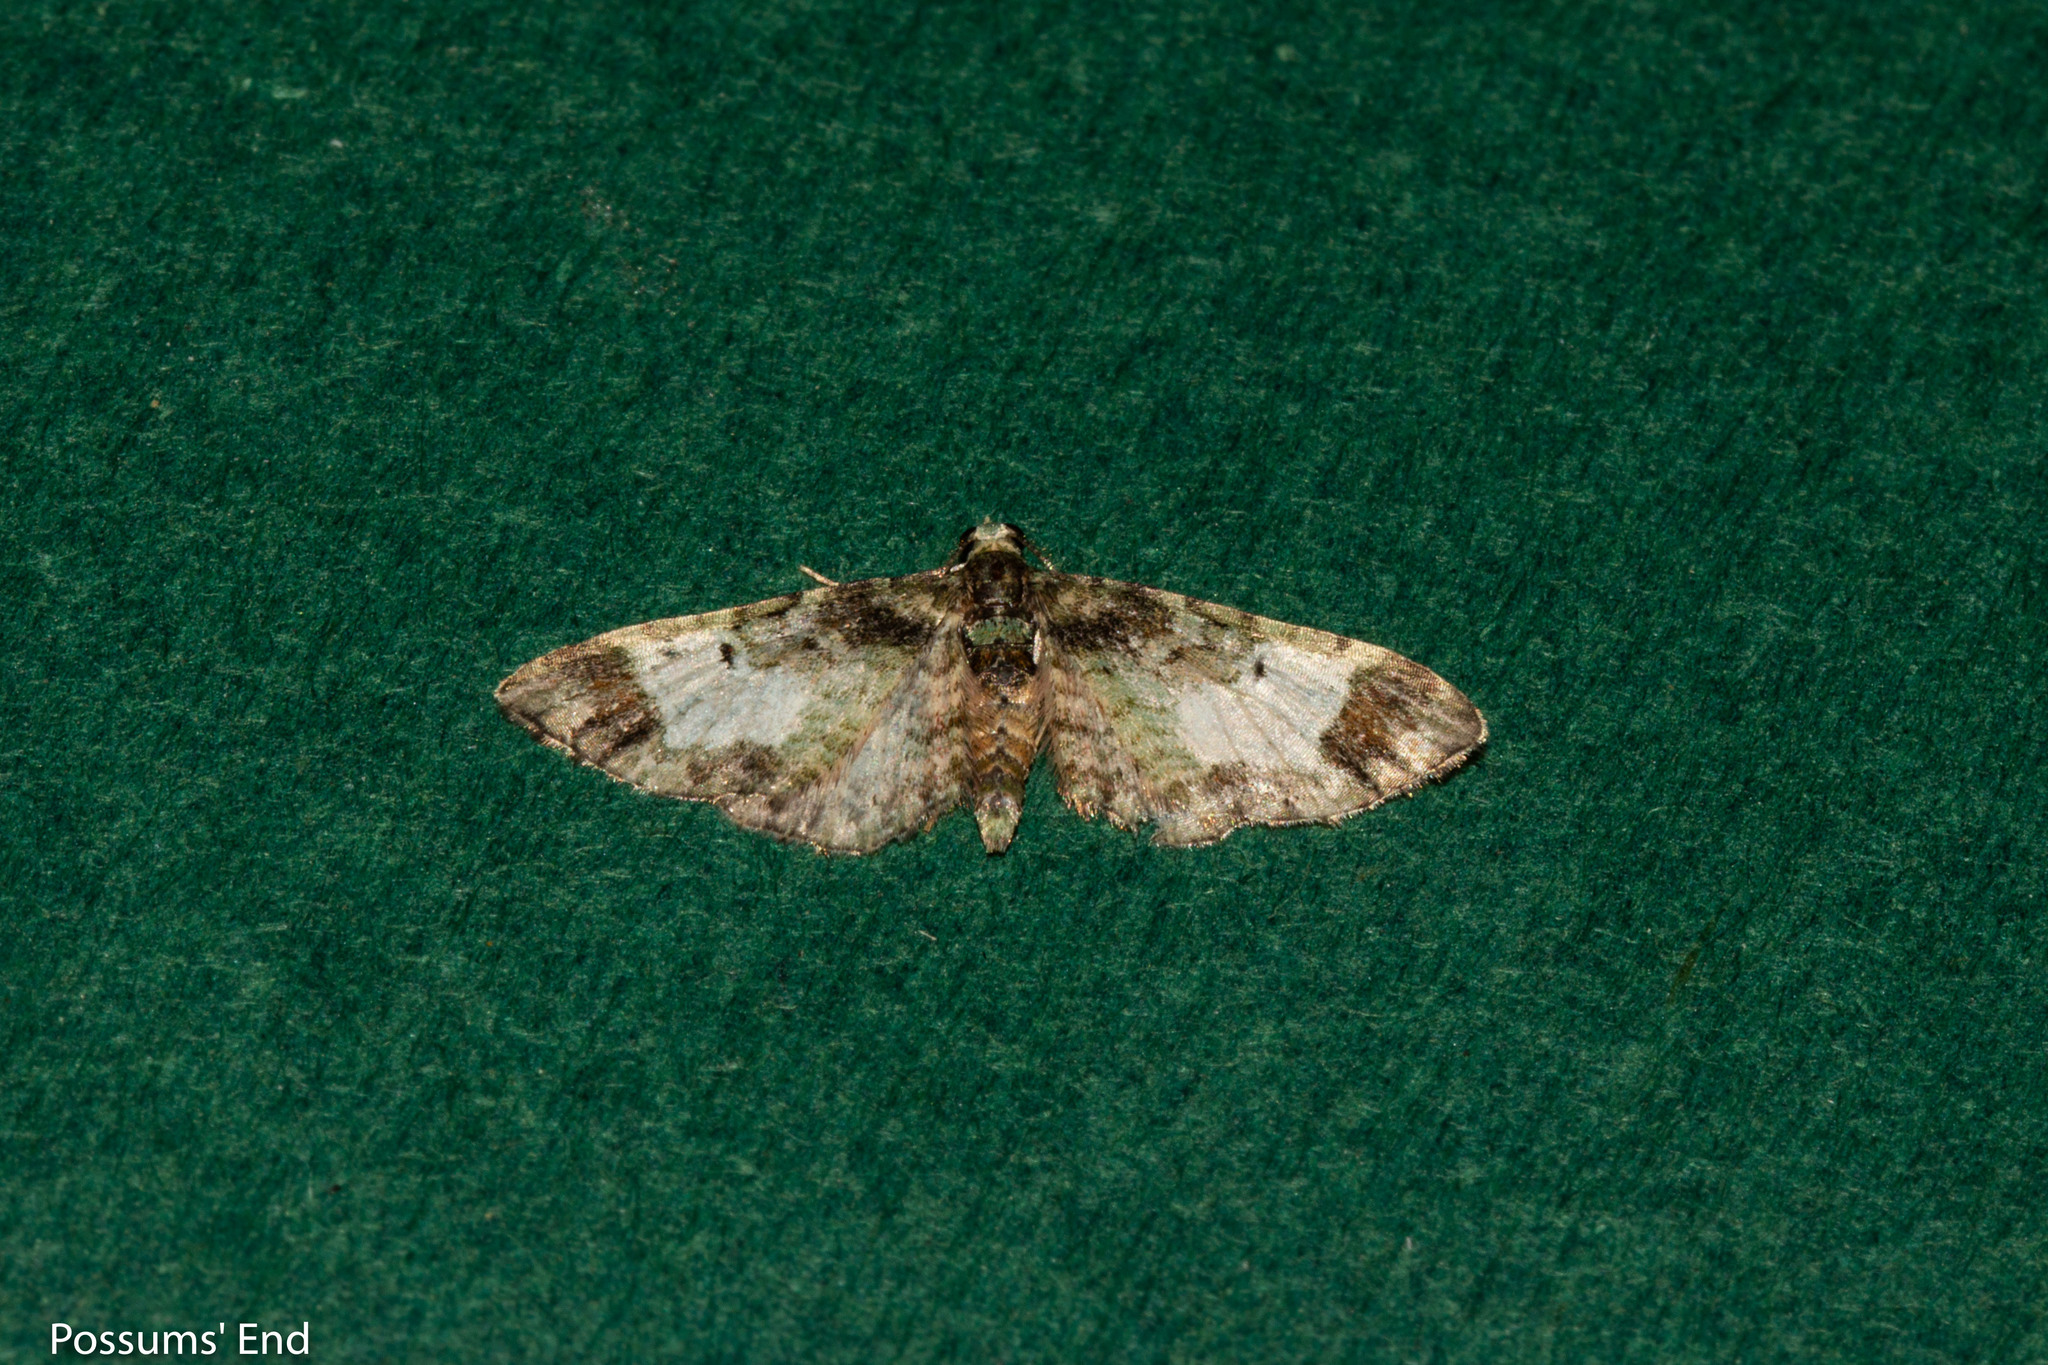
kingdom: Animalia
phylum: Arthropoda
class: Insecta
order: Lepidoptera
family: Geometridae
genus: Pasiphila
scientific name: Pasiphila sandycias
